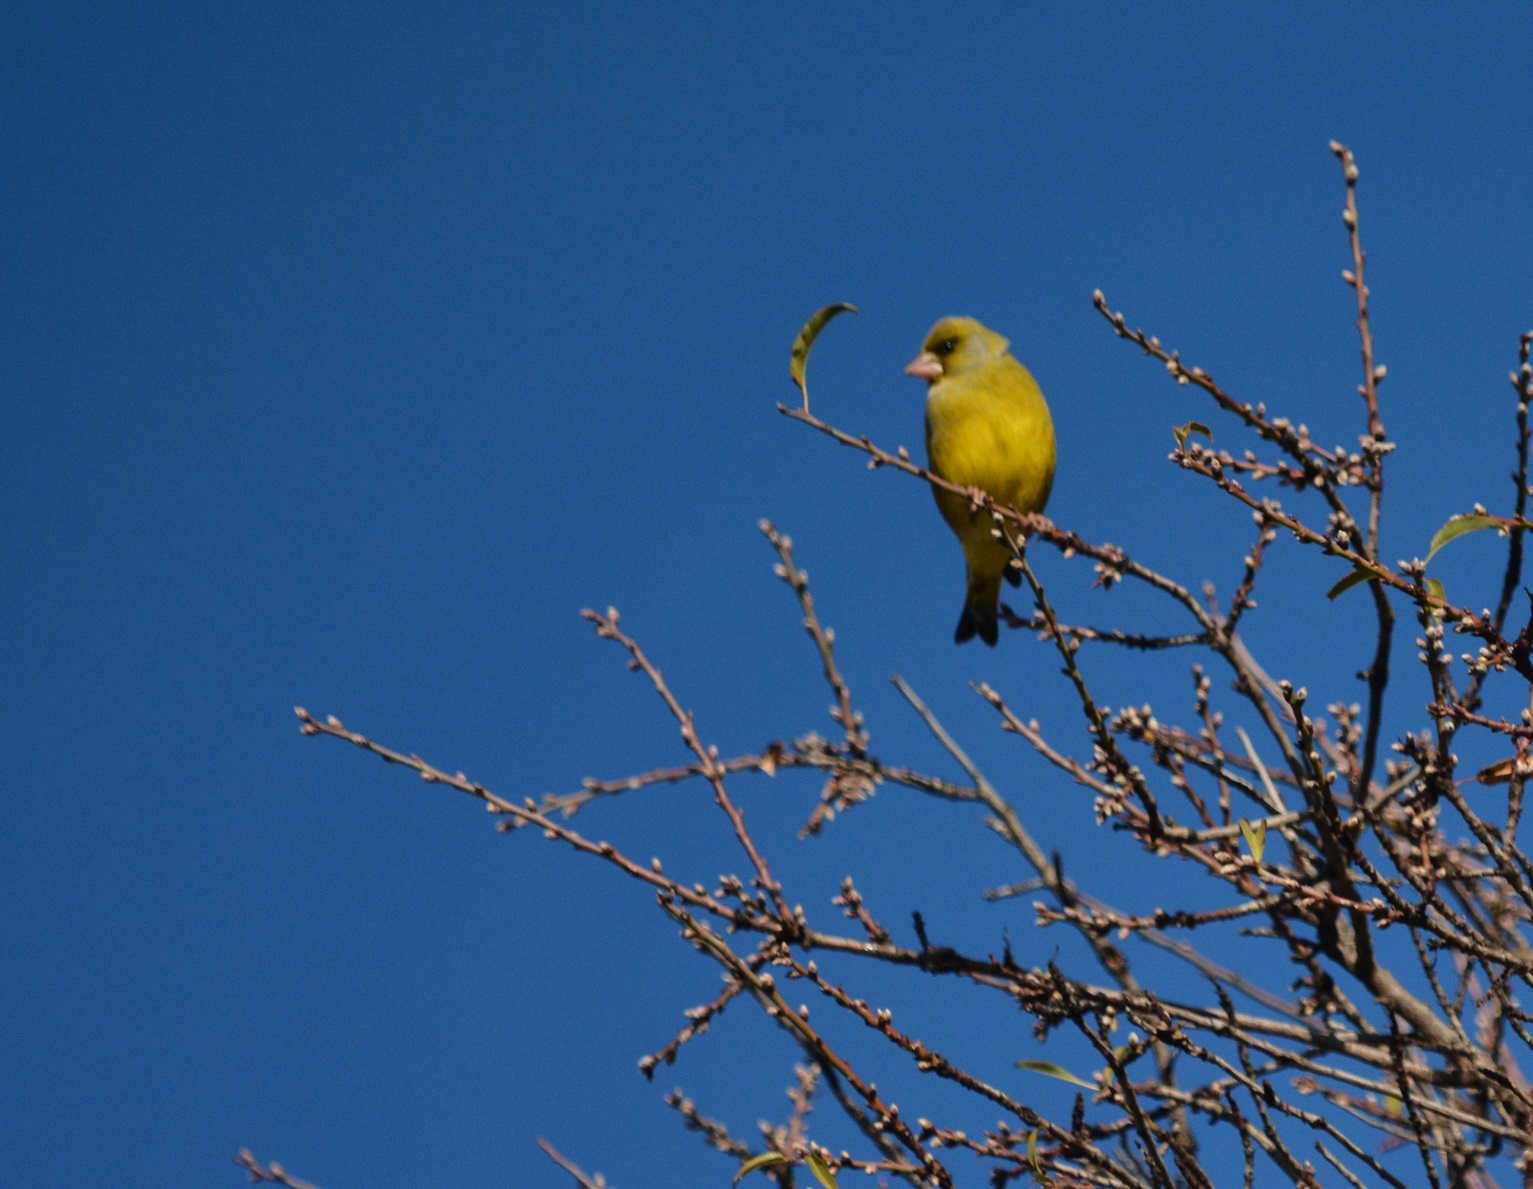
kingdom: Plantae
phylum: Tracheophyta
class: Liliopsida
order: Poales
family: Poaceae
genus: Chloris
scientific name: Chloris chloris
